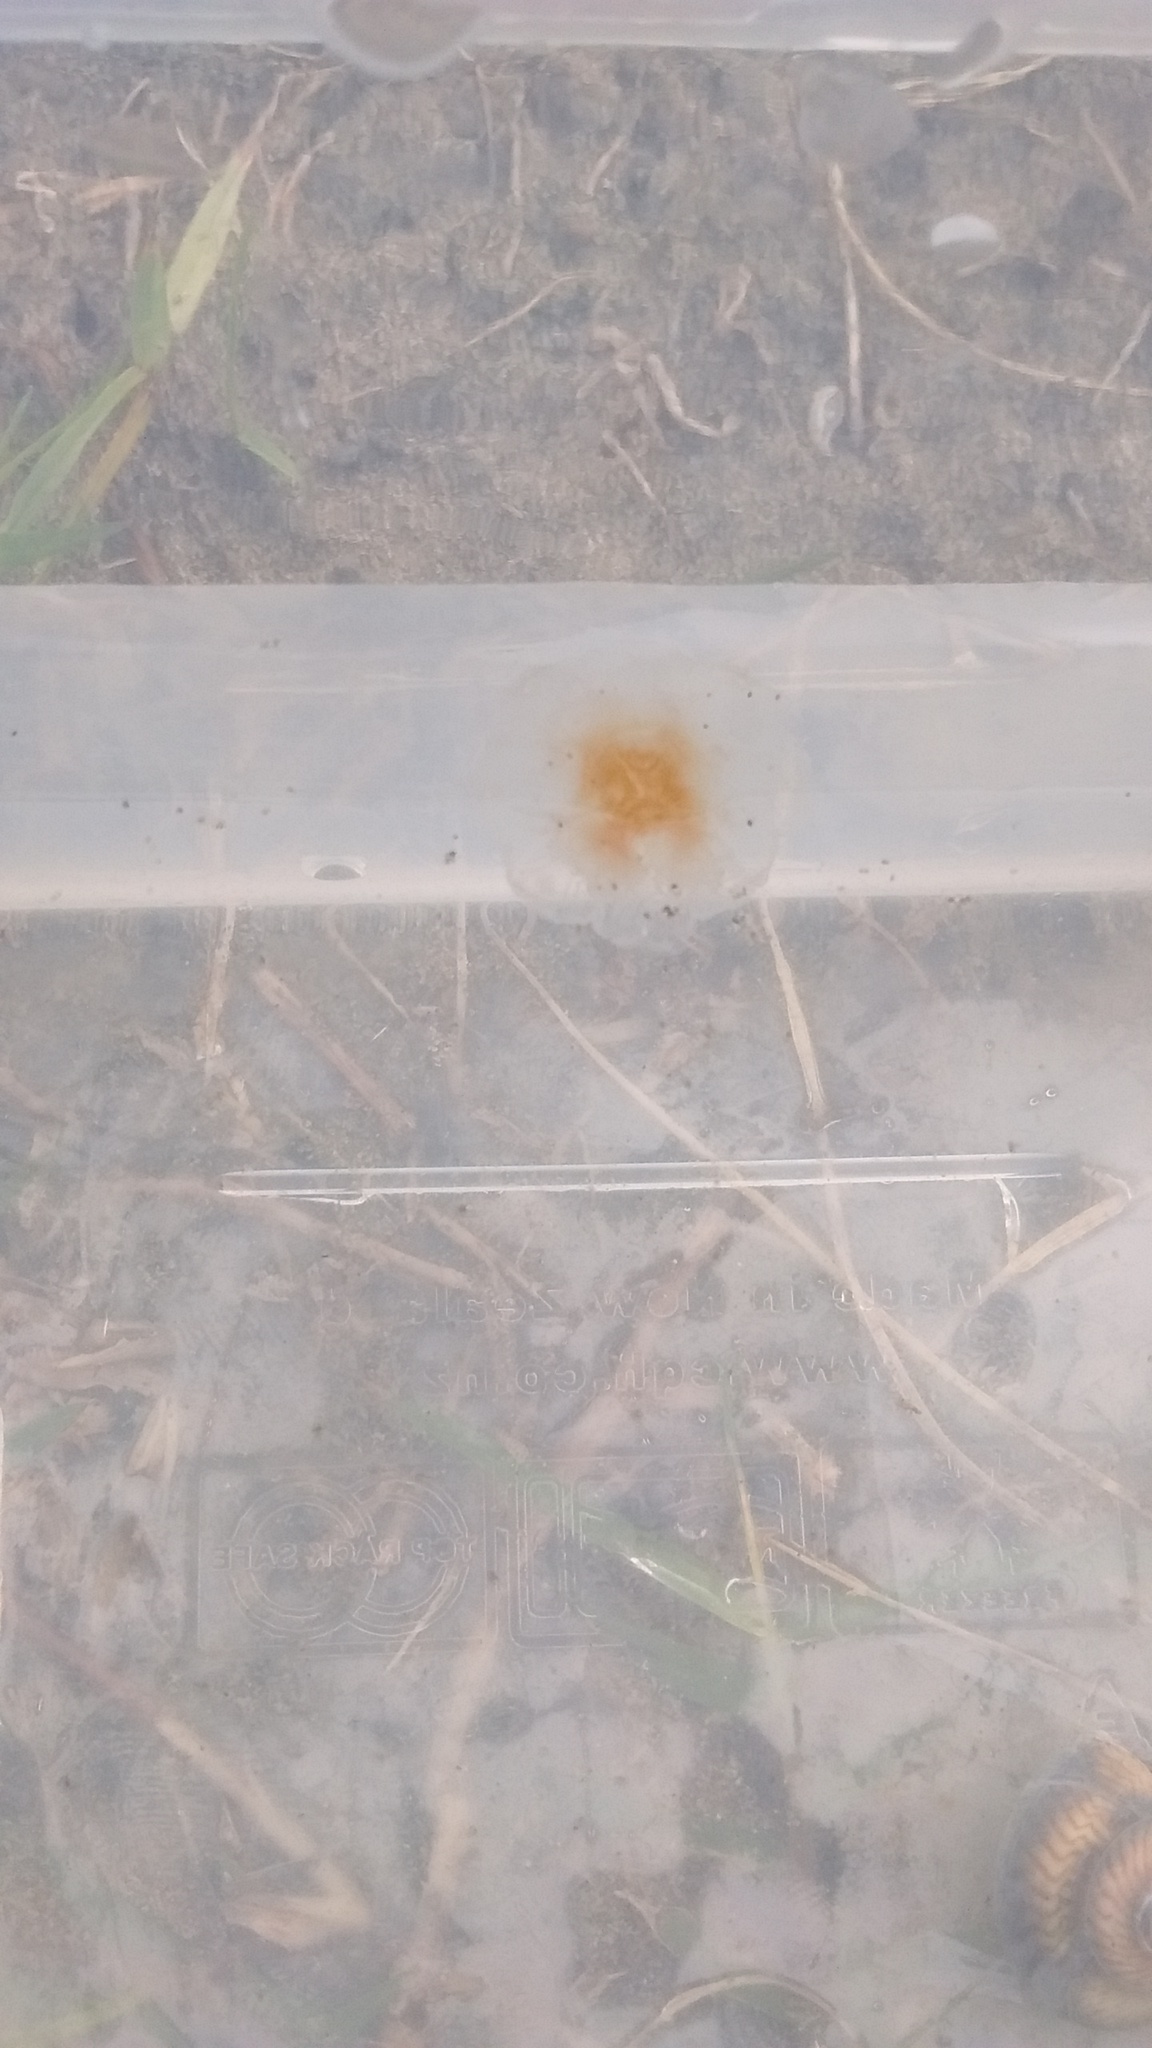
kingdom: Animalia
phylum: Cnidaria
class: Scyphozoa
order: Semaeostomeae
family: Cyaneidae
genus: Cyanea
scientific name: Cyanea
